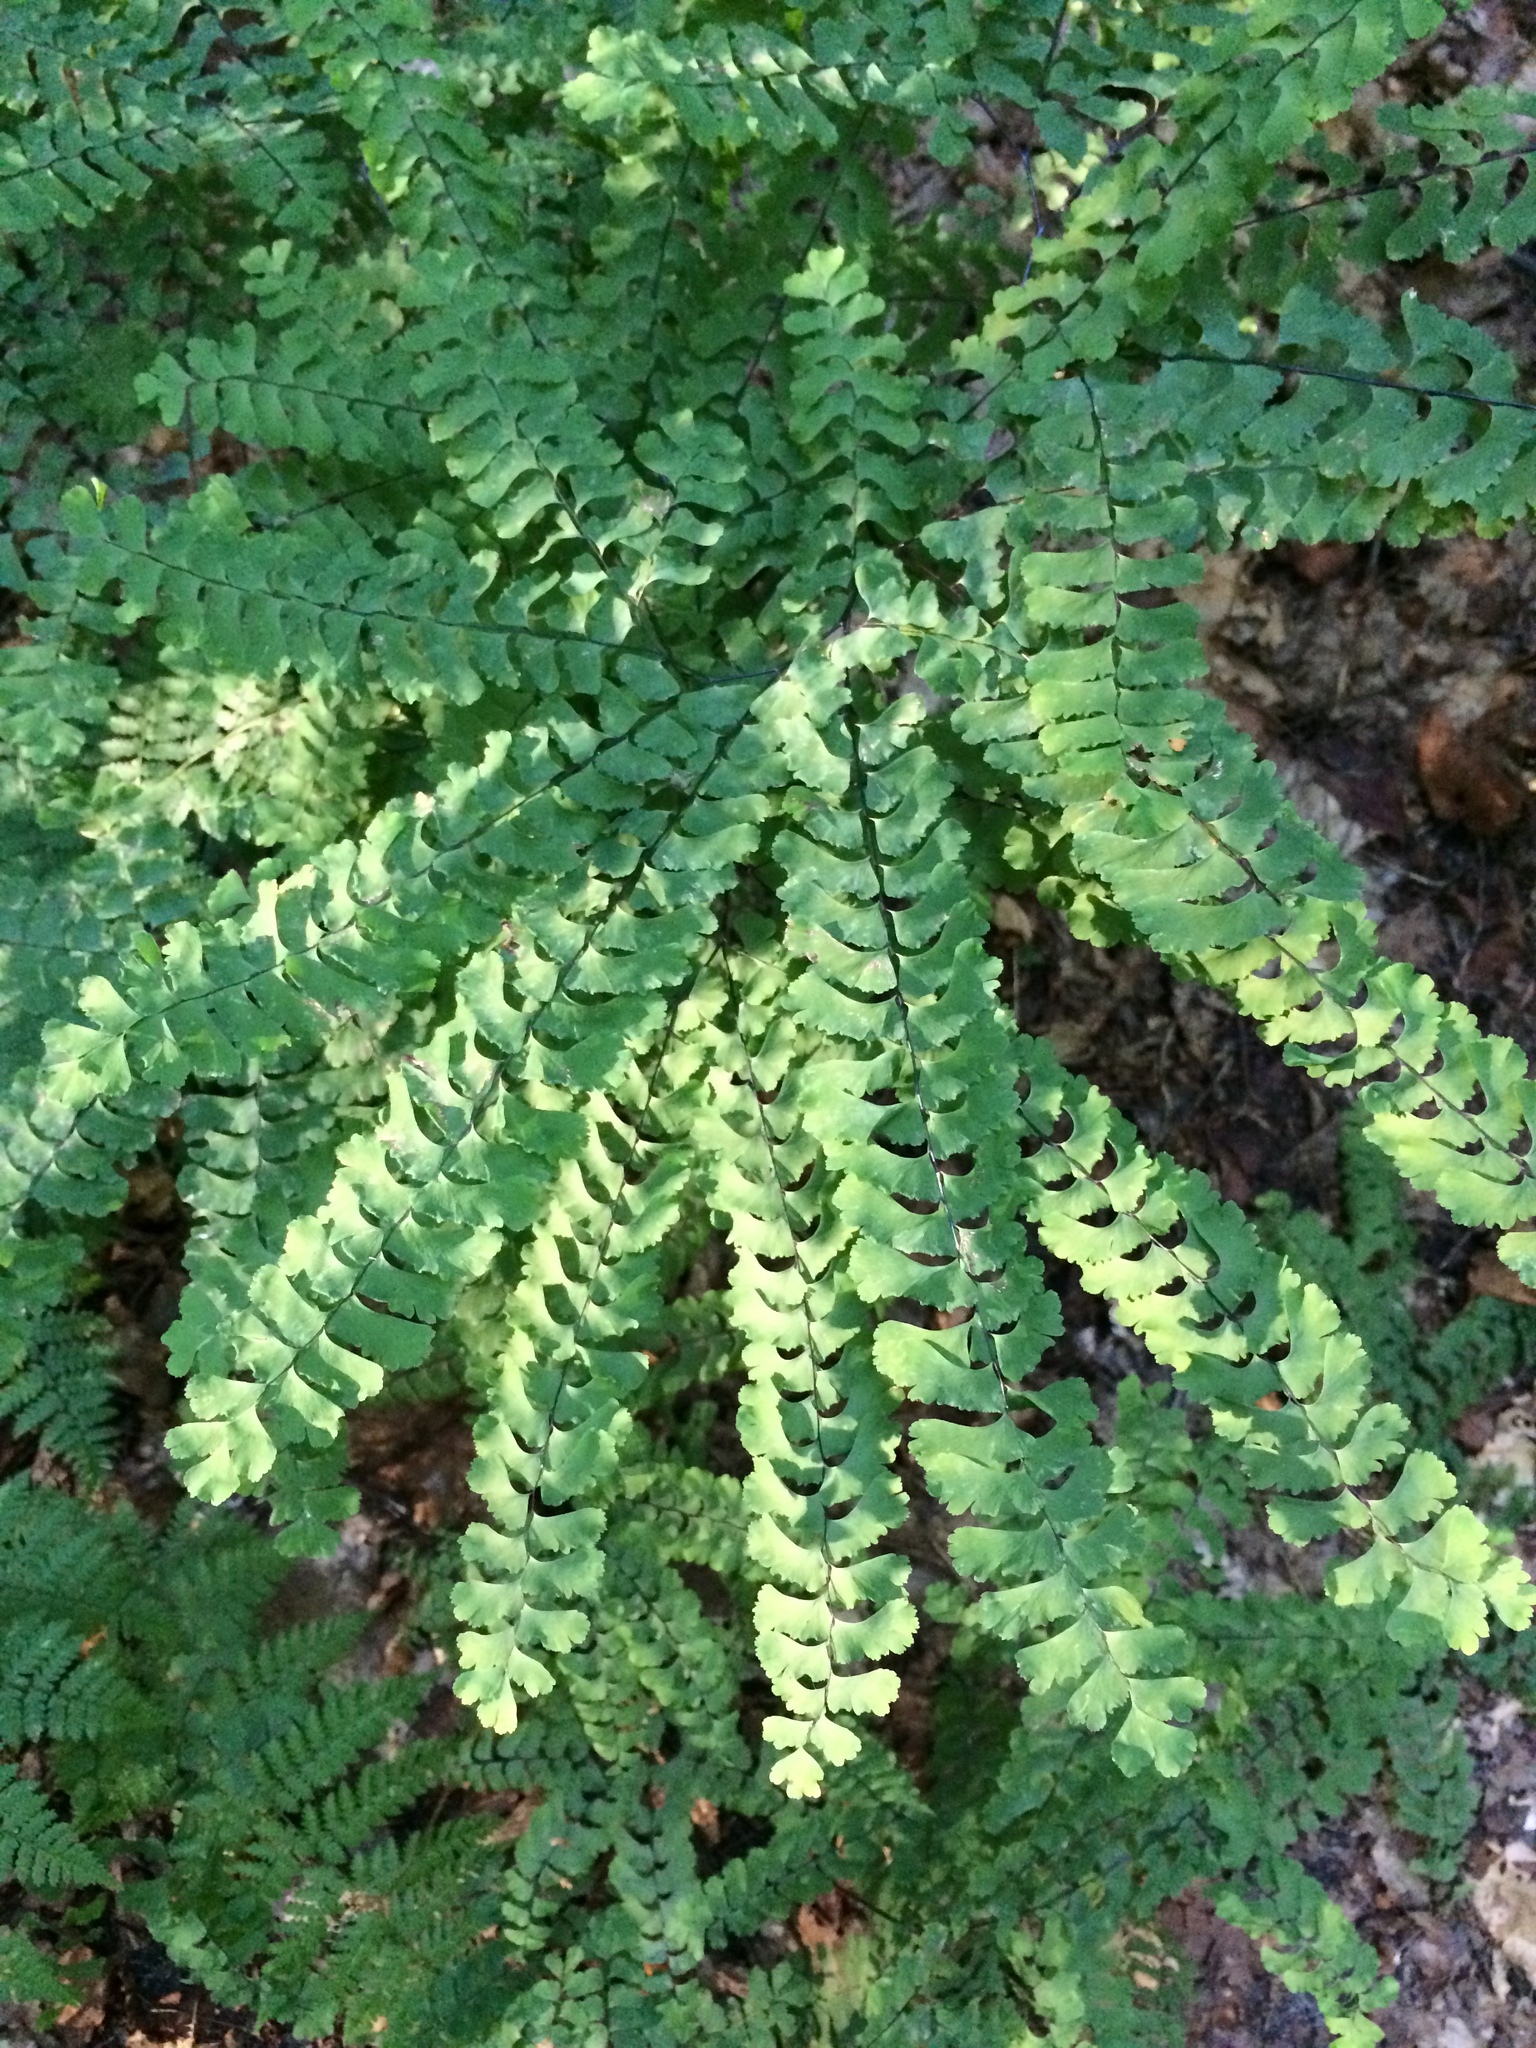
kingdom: Plantae
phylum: Tracheophyta
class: Polypodiopsida
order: Polypodiales
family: Pteridaceae
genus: Adiantum
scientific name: Adiantum pedatum
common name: Five-finger fern
